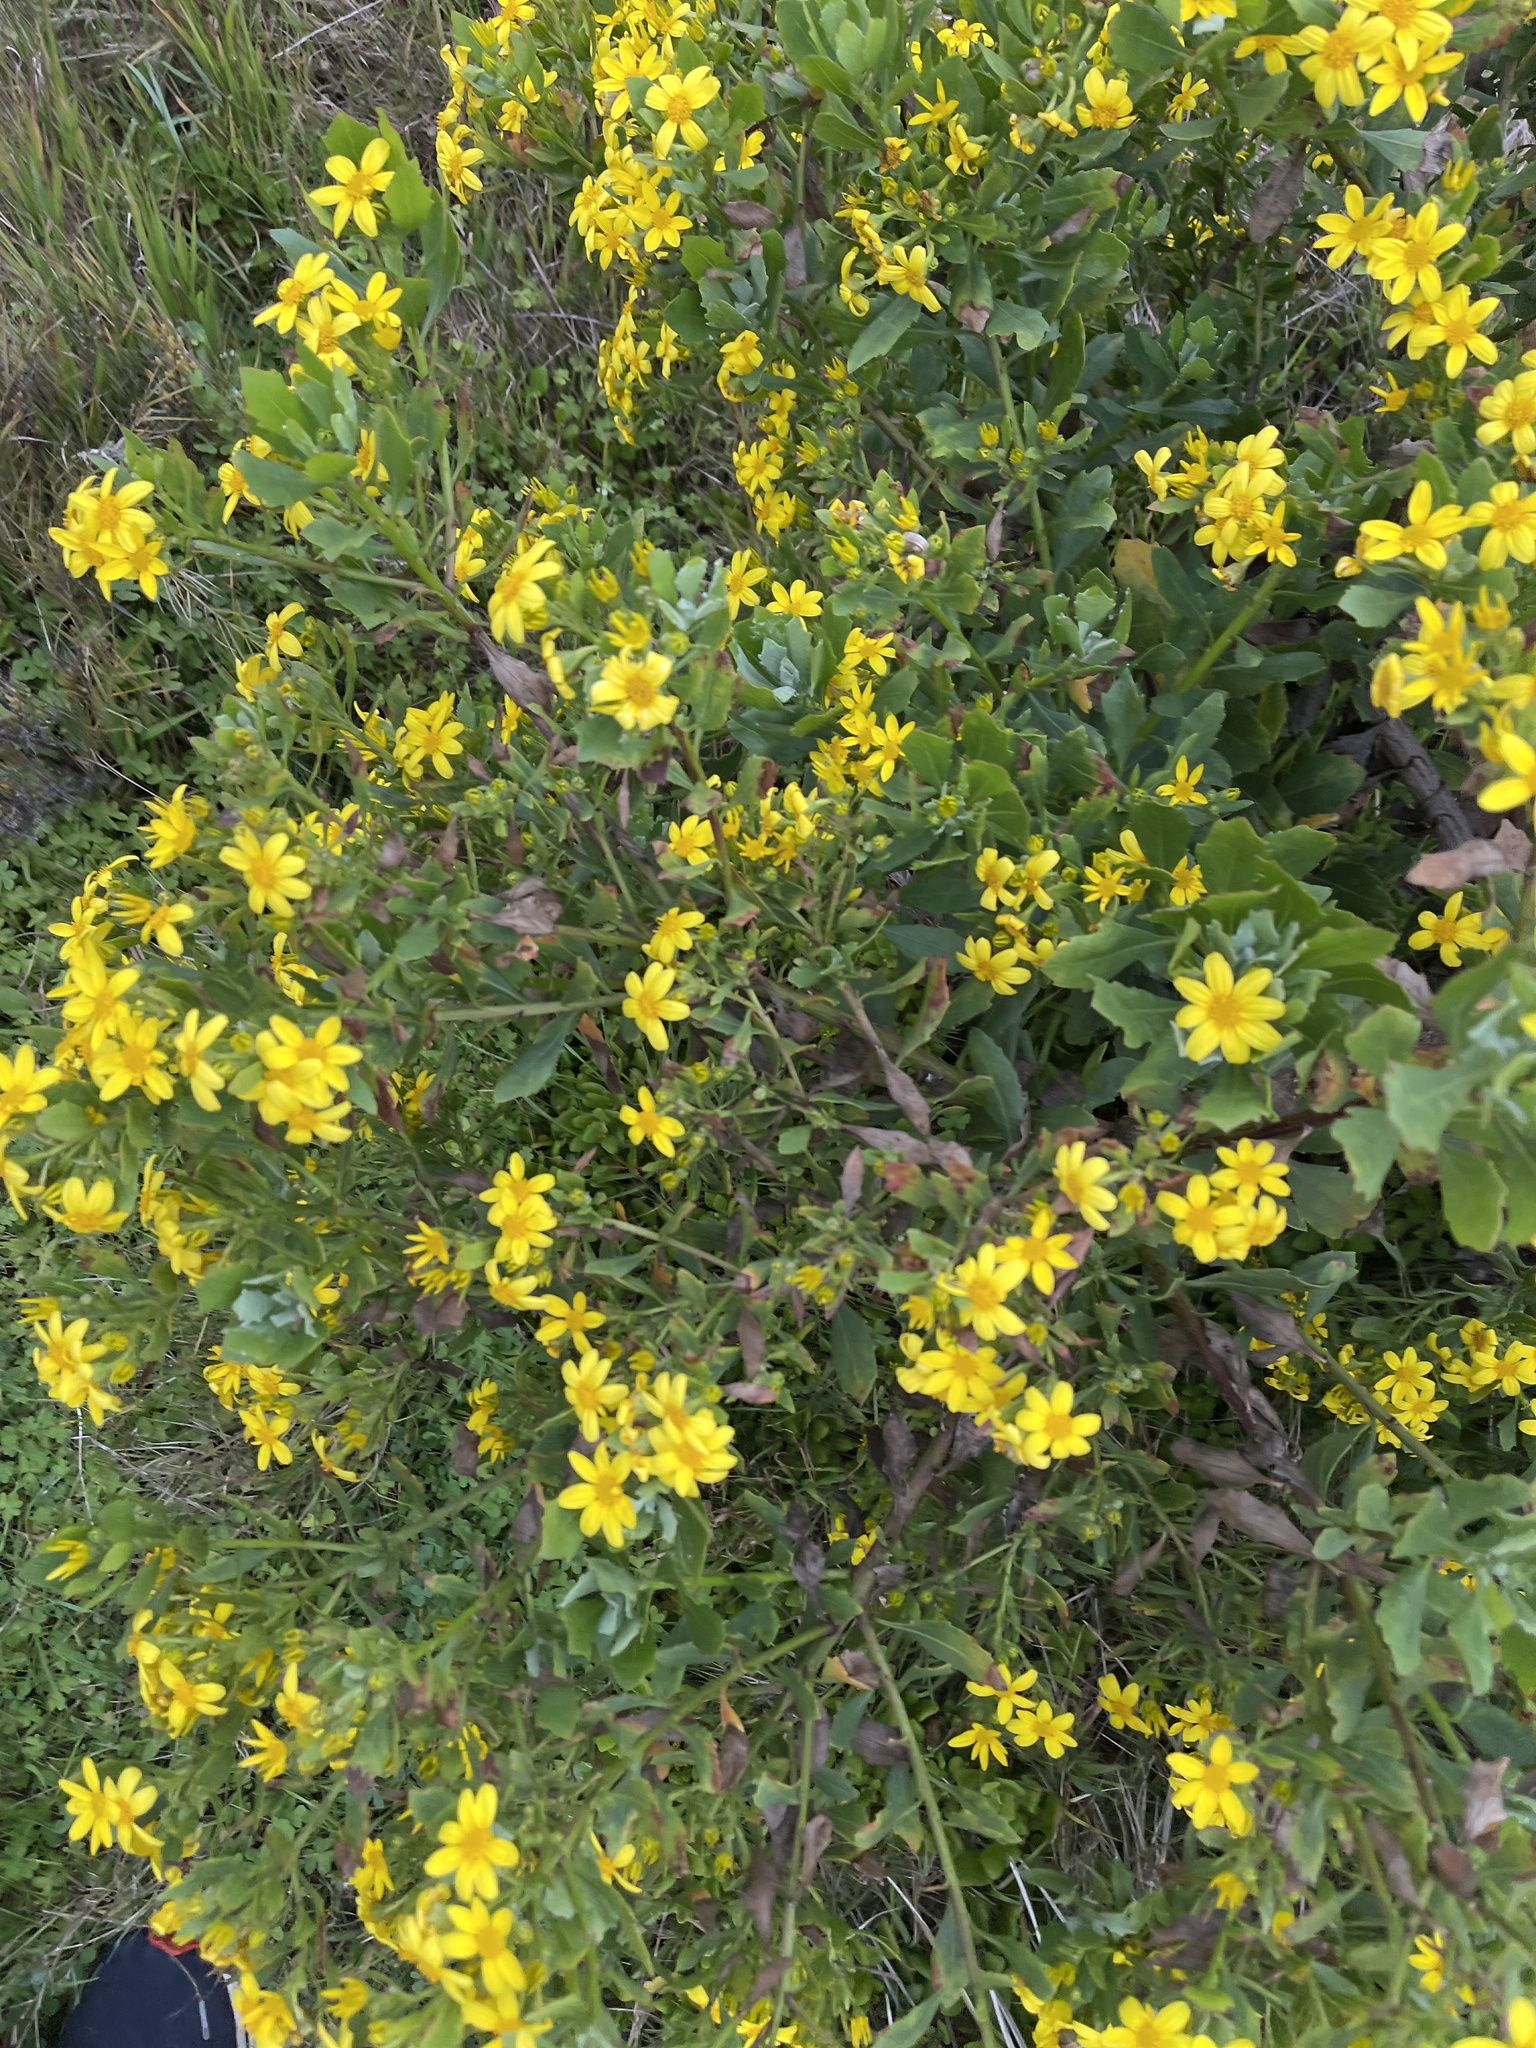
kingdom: Plantae
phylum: Tracheophyta
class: Magnoliopsida
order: Asterales
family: Asteraceae
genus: Osteospermum
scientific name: Osteospermum moniliferum
